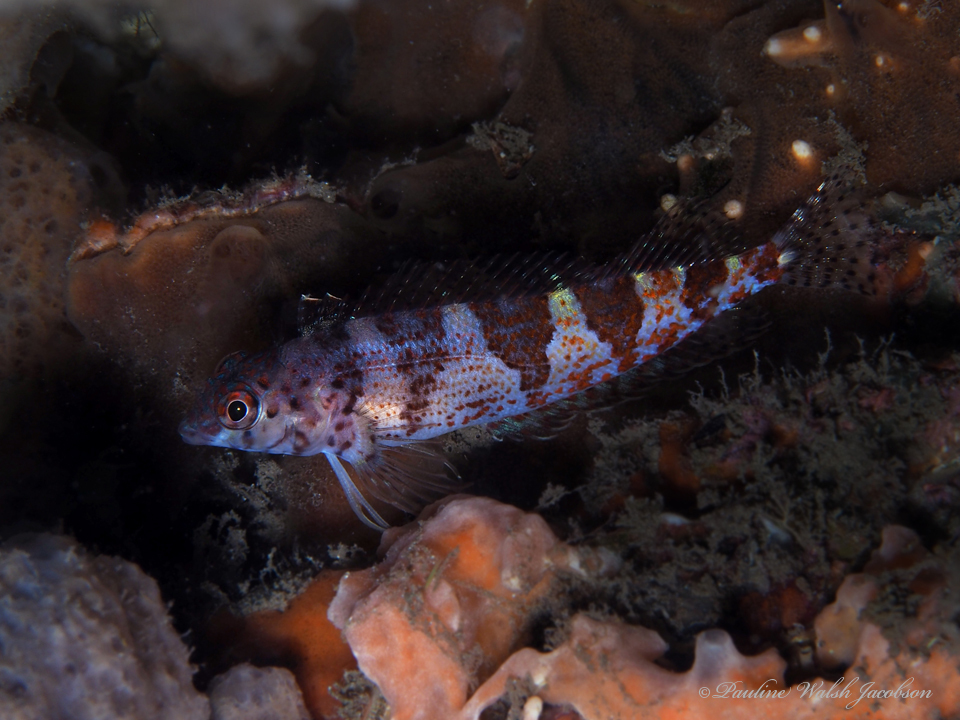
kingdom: Animalia
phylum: Chordata
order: Perciformes
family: Labrisomidae
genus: Malacoctenus
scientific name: Malacoctenus triangulatus
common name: Saddled blenny
